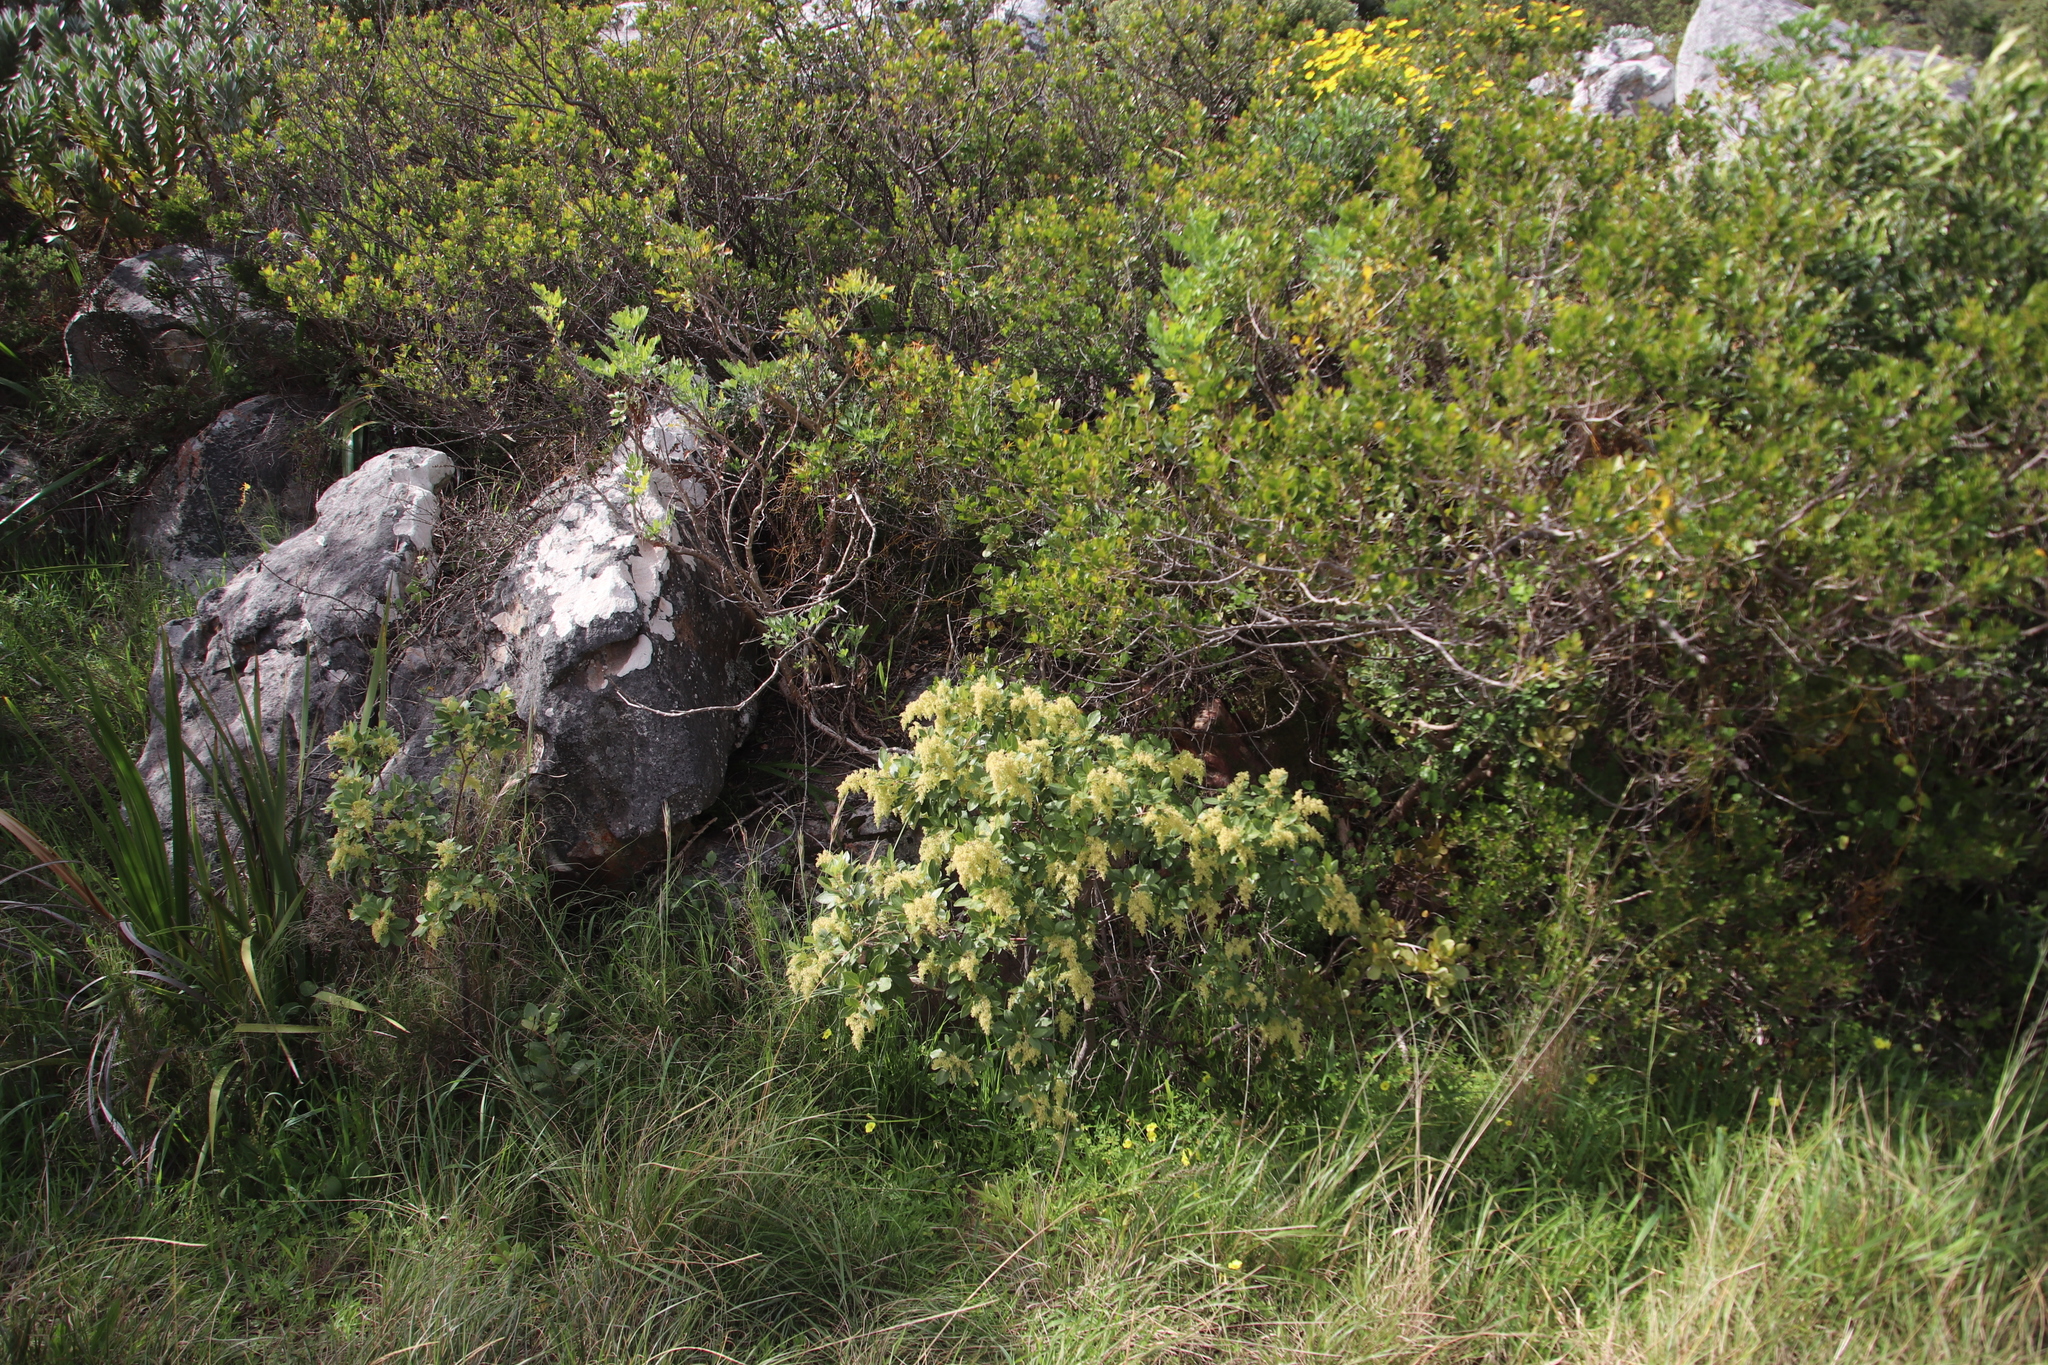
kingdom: Plantae
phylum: Tracheophyta
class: Magnoliopsida
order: Sapindales
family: Anacardiaceae
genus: Searsia
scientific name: Searsia tomentosa
